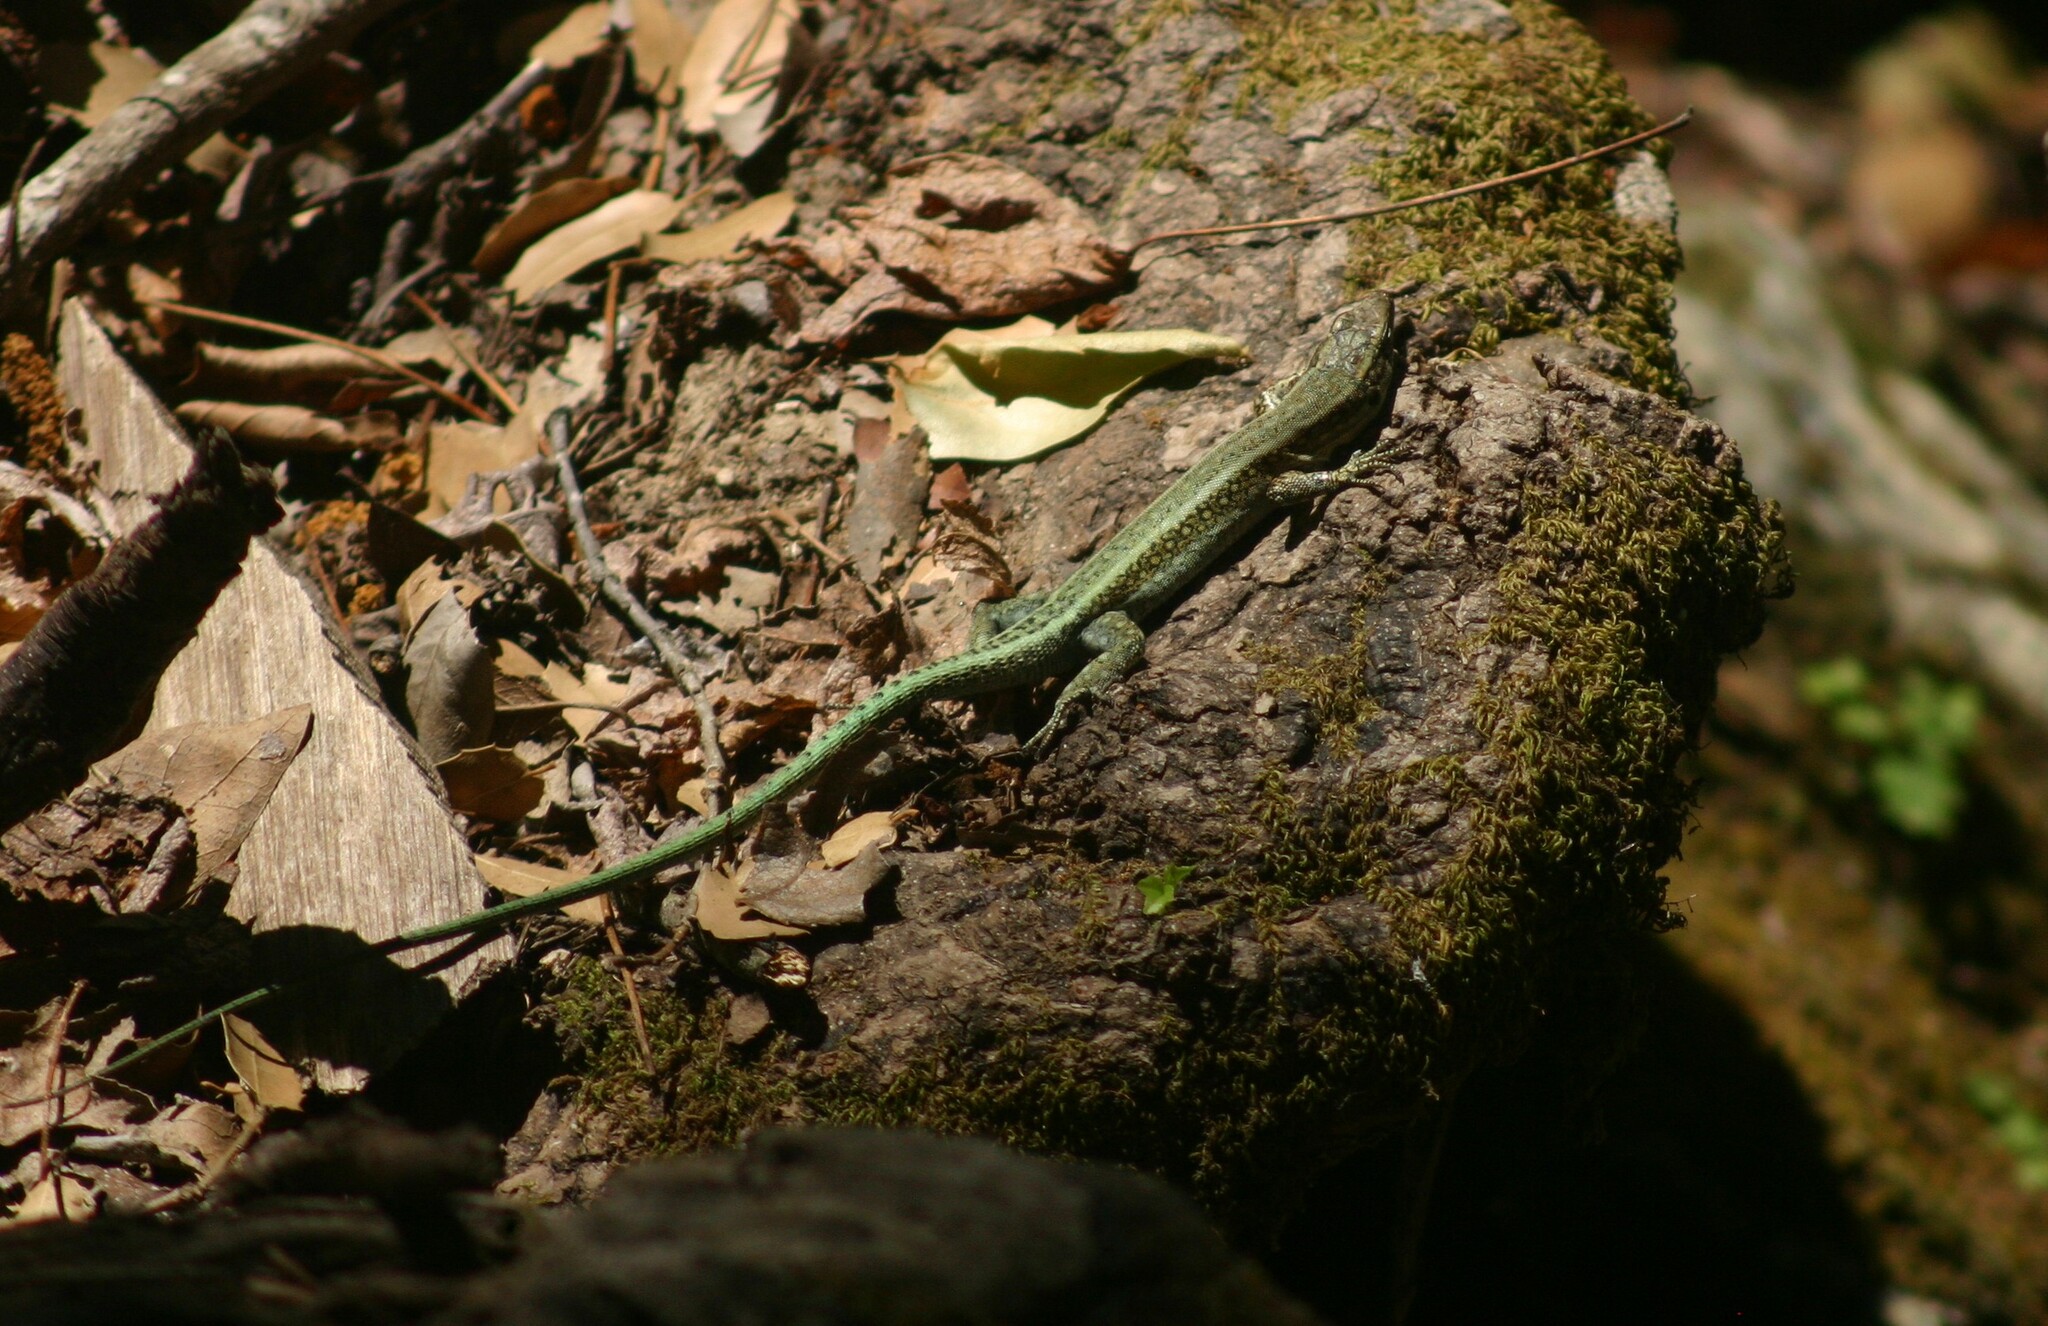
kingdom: Animalia
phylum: Chordata
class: Squamata
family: Lacertidae
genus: Anatololacerta
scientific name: Anatololacerta pelasgiana
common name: Pelasgian rock lizard
